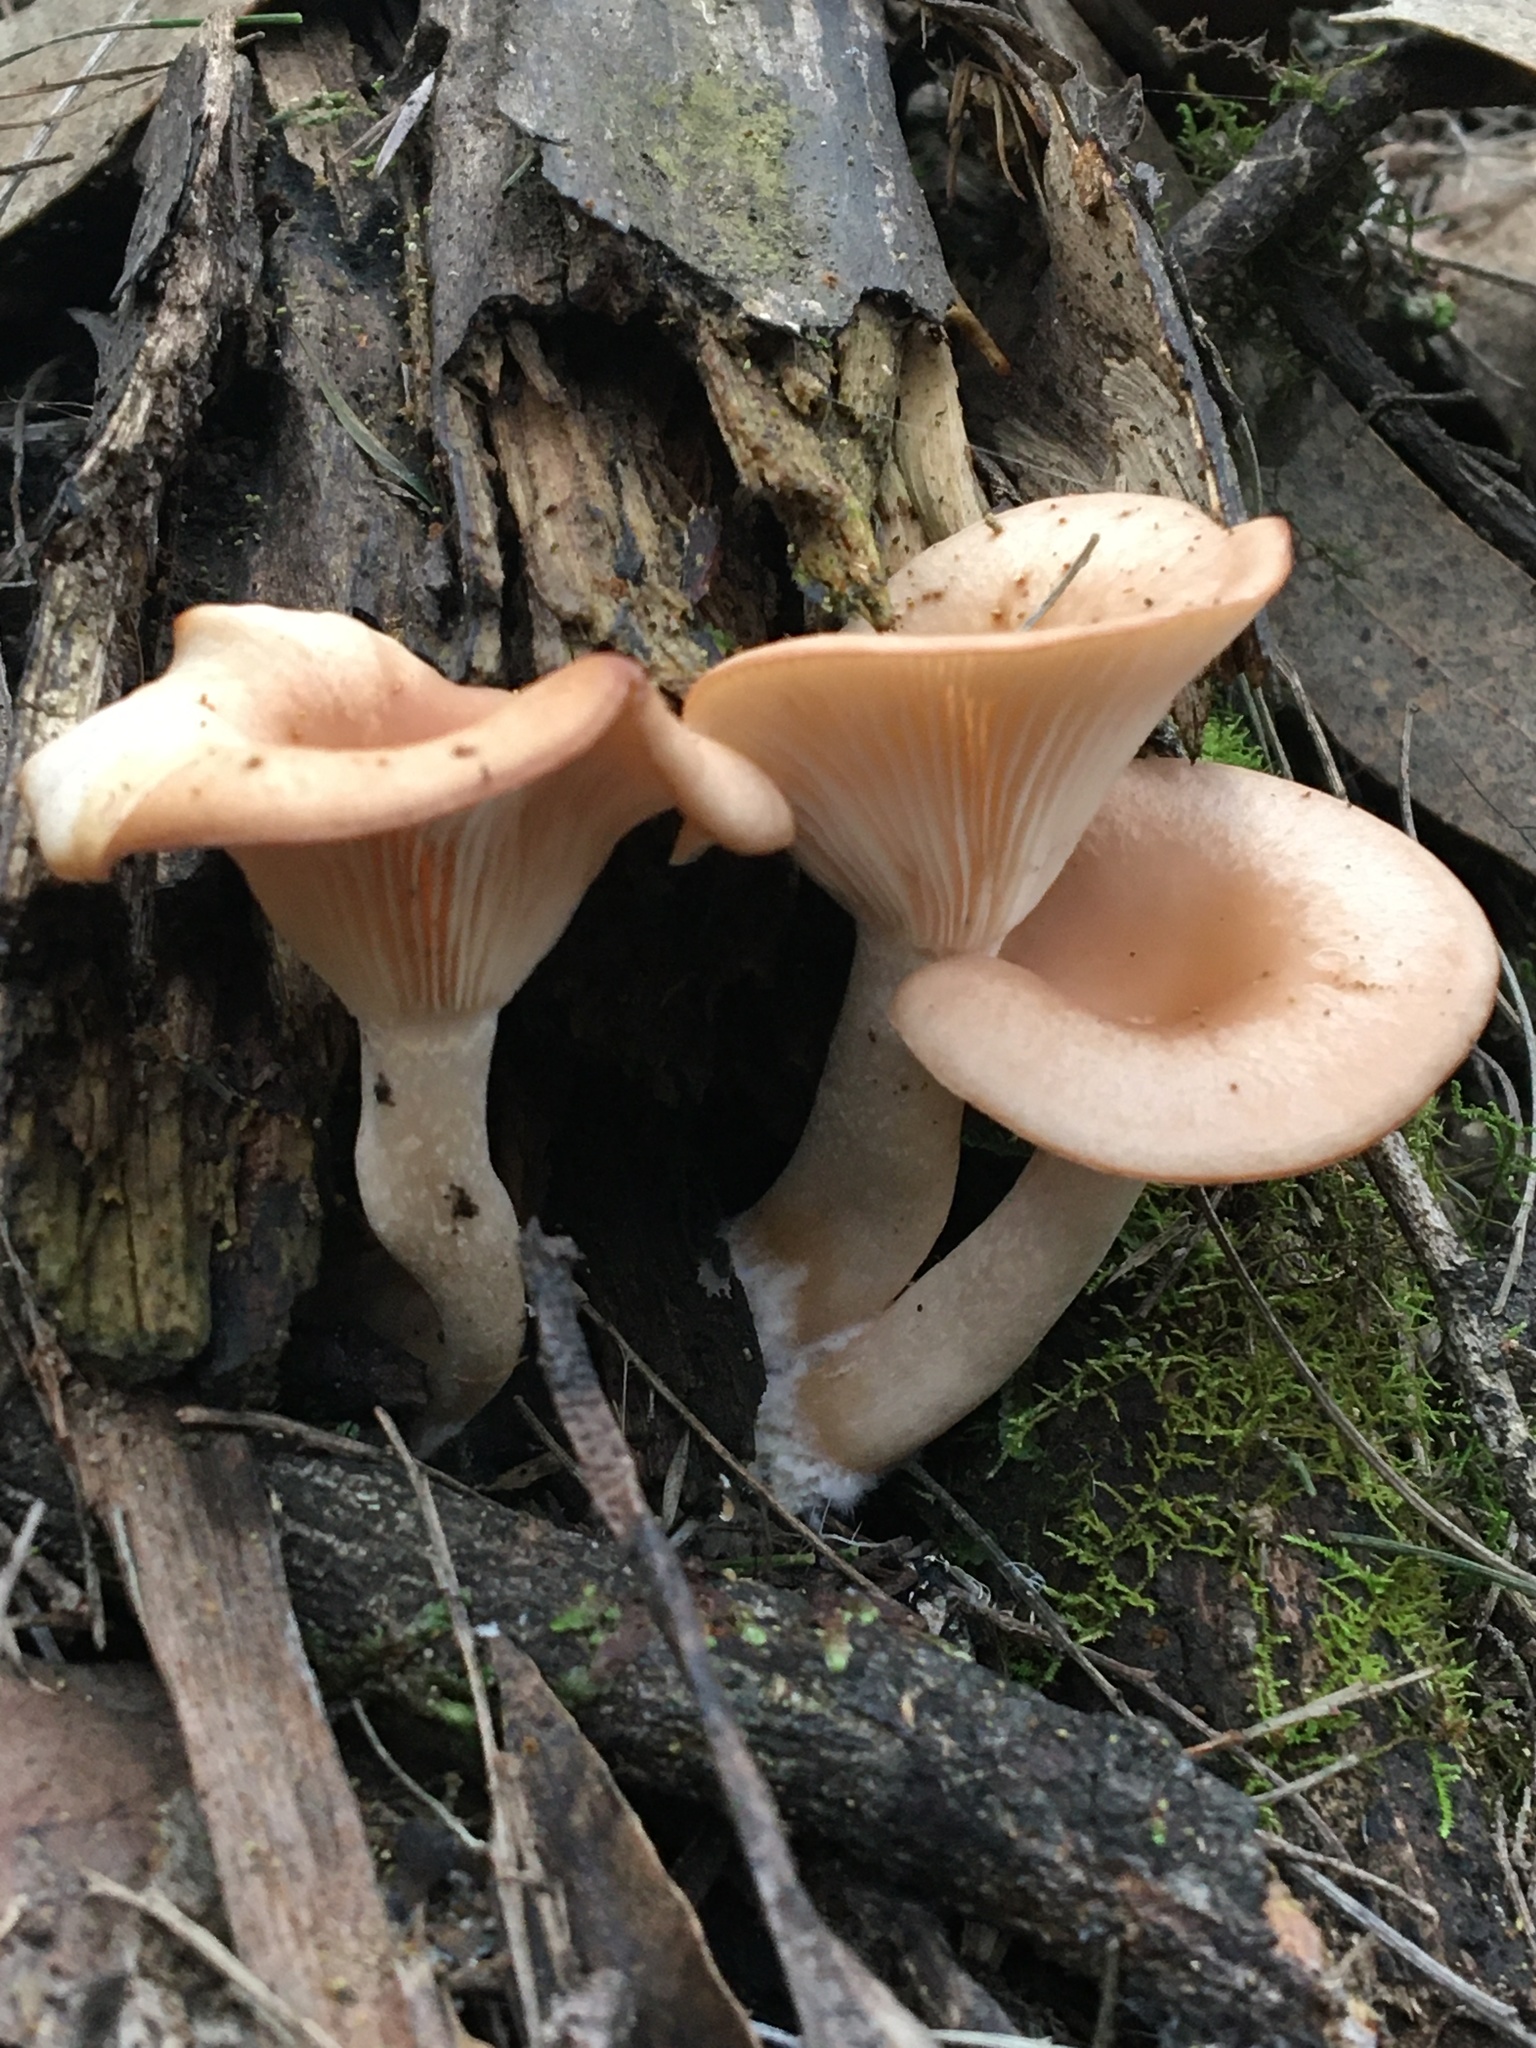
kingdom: Fungi
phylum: Basidiomycota
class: Agaricomycetes
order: Agaricales
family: Tricholomataceae
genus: Singerocybe
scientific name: Singerocybe clitocyboides
